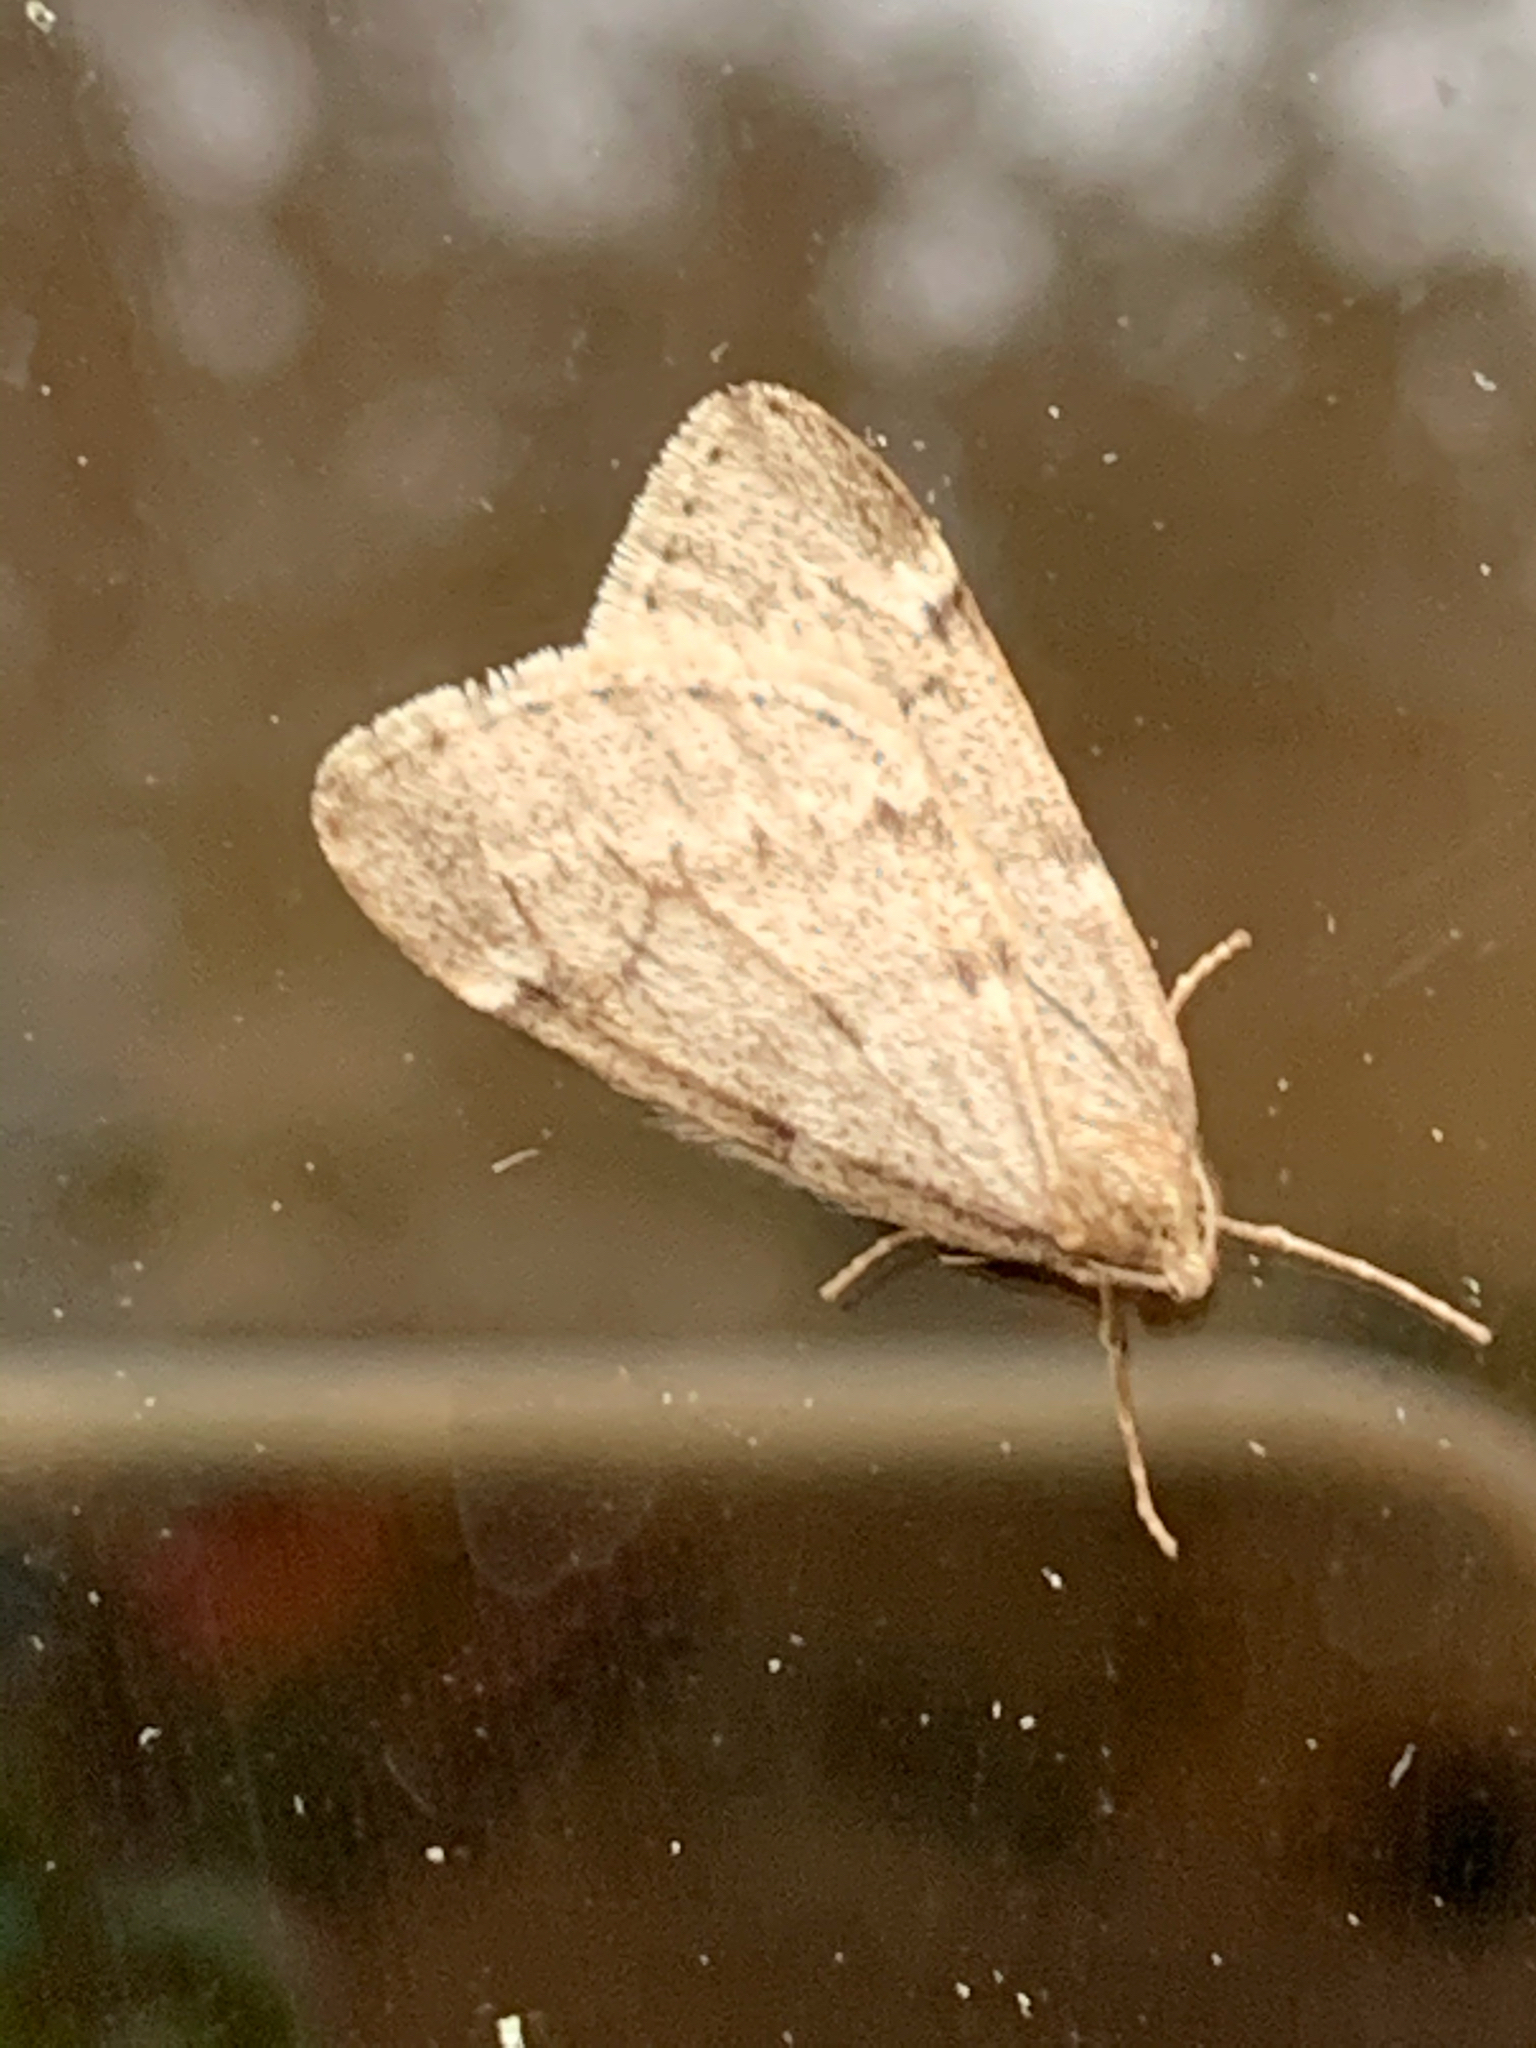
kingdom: Animalia
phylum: Arthropoda
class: Insecta
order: Lepidoptera
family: Geometridae
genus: Alsophila
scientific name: Alsophila pometaria
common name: Fall cankerworm
